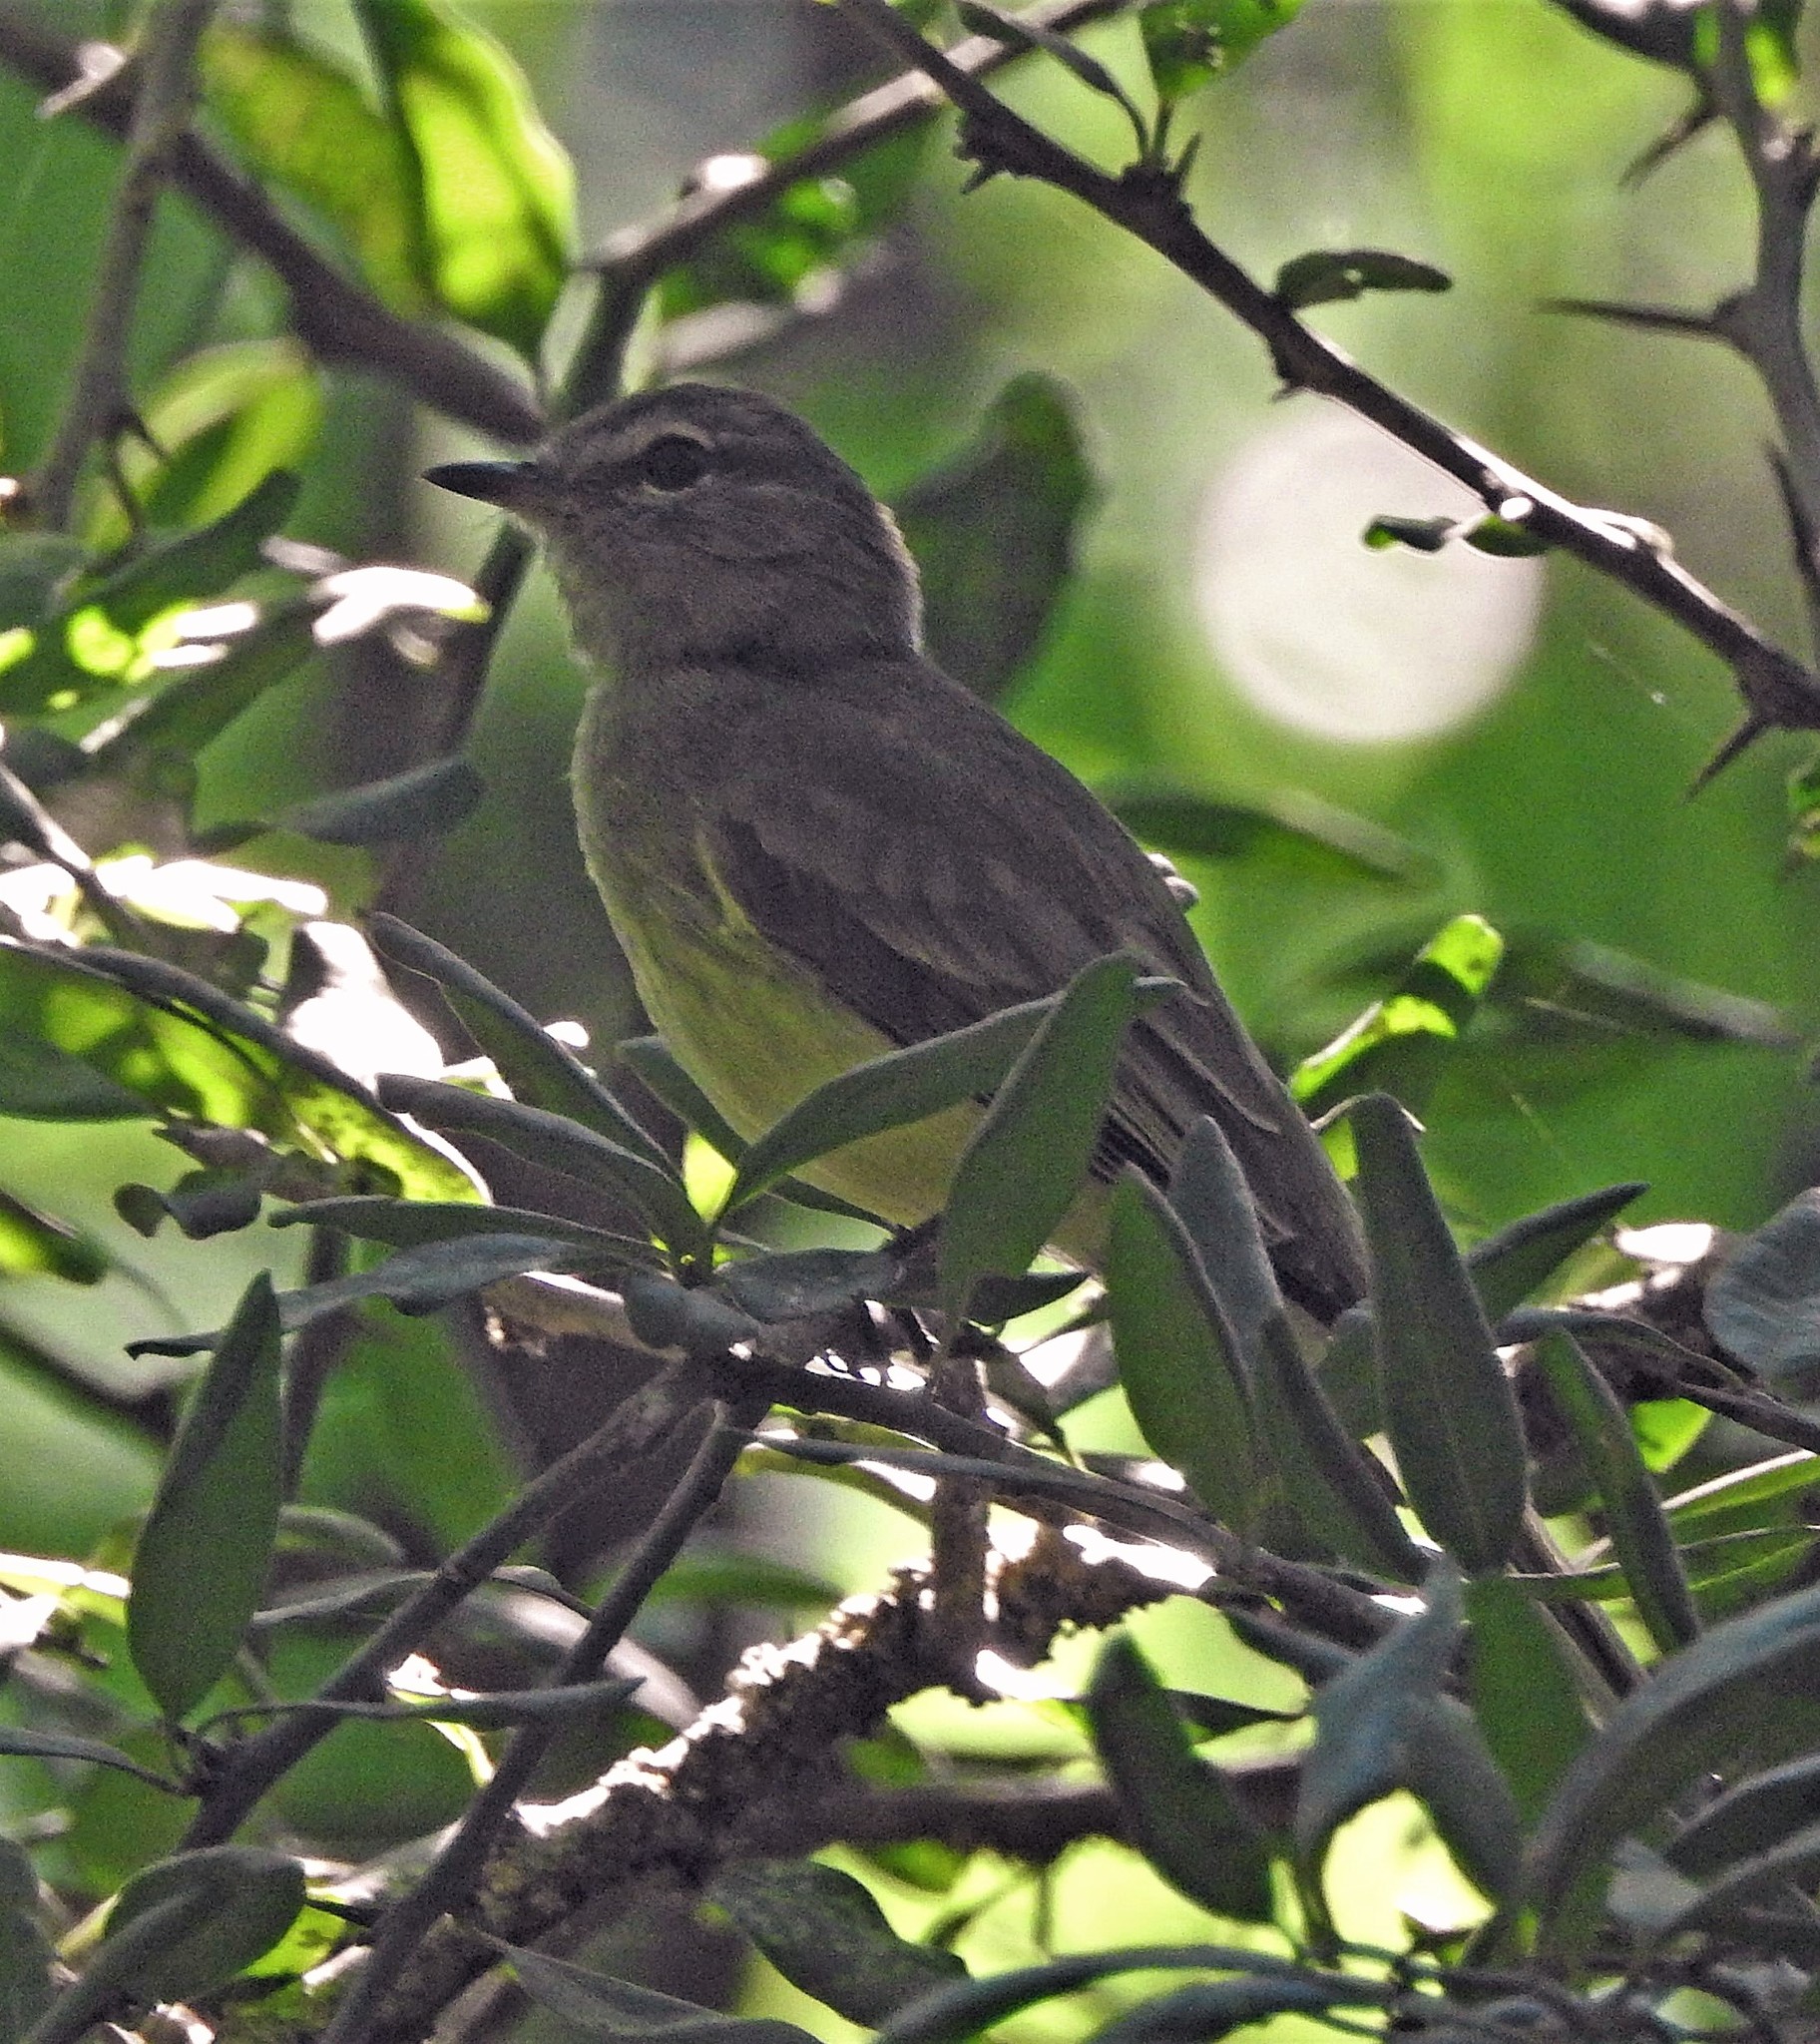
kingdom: Animalia
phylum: Chordata
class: Aves
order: Passeriformes
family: Tyrannidae
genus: Myiopagis
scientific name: Myiopagis viridicata
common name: Greenish elaenia
